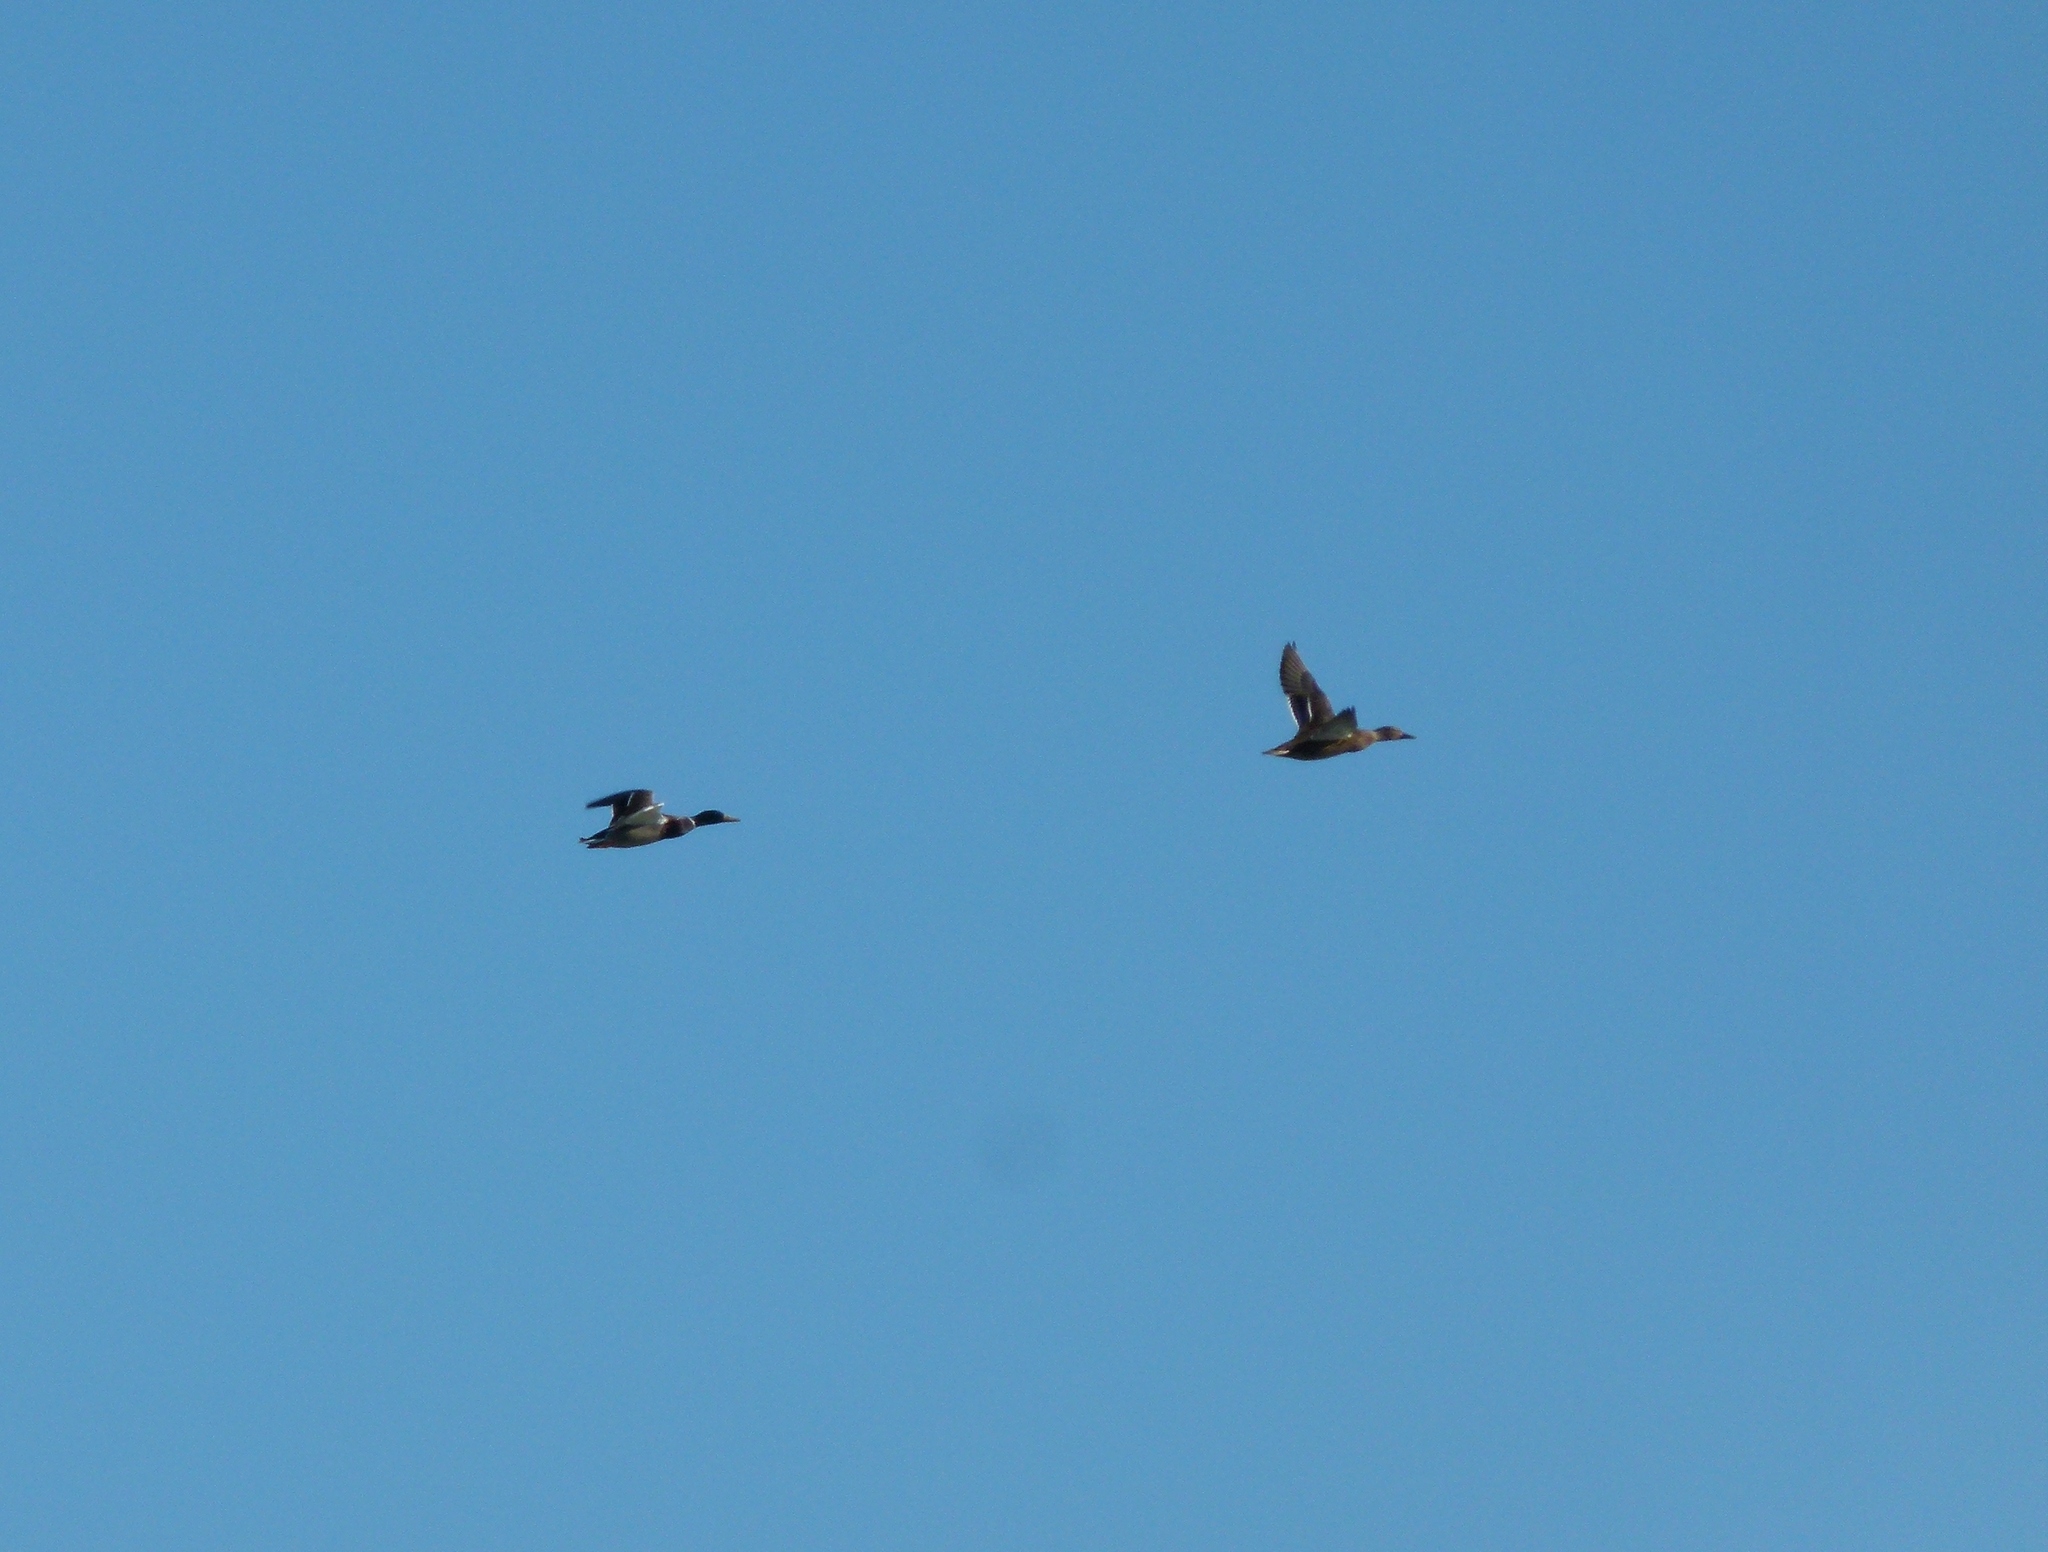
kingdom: Animalia
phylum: Chordata
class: Aves
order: Anseriformes
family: Anatidae
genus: Anas
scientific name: Anas platyrhynchos
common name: Mallard
